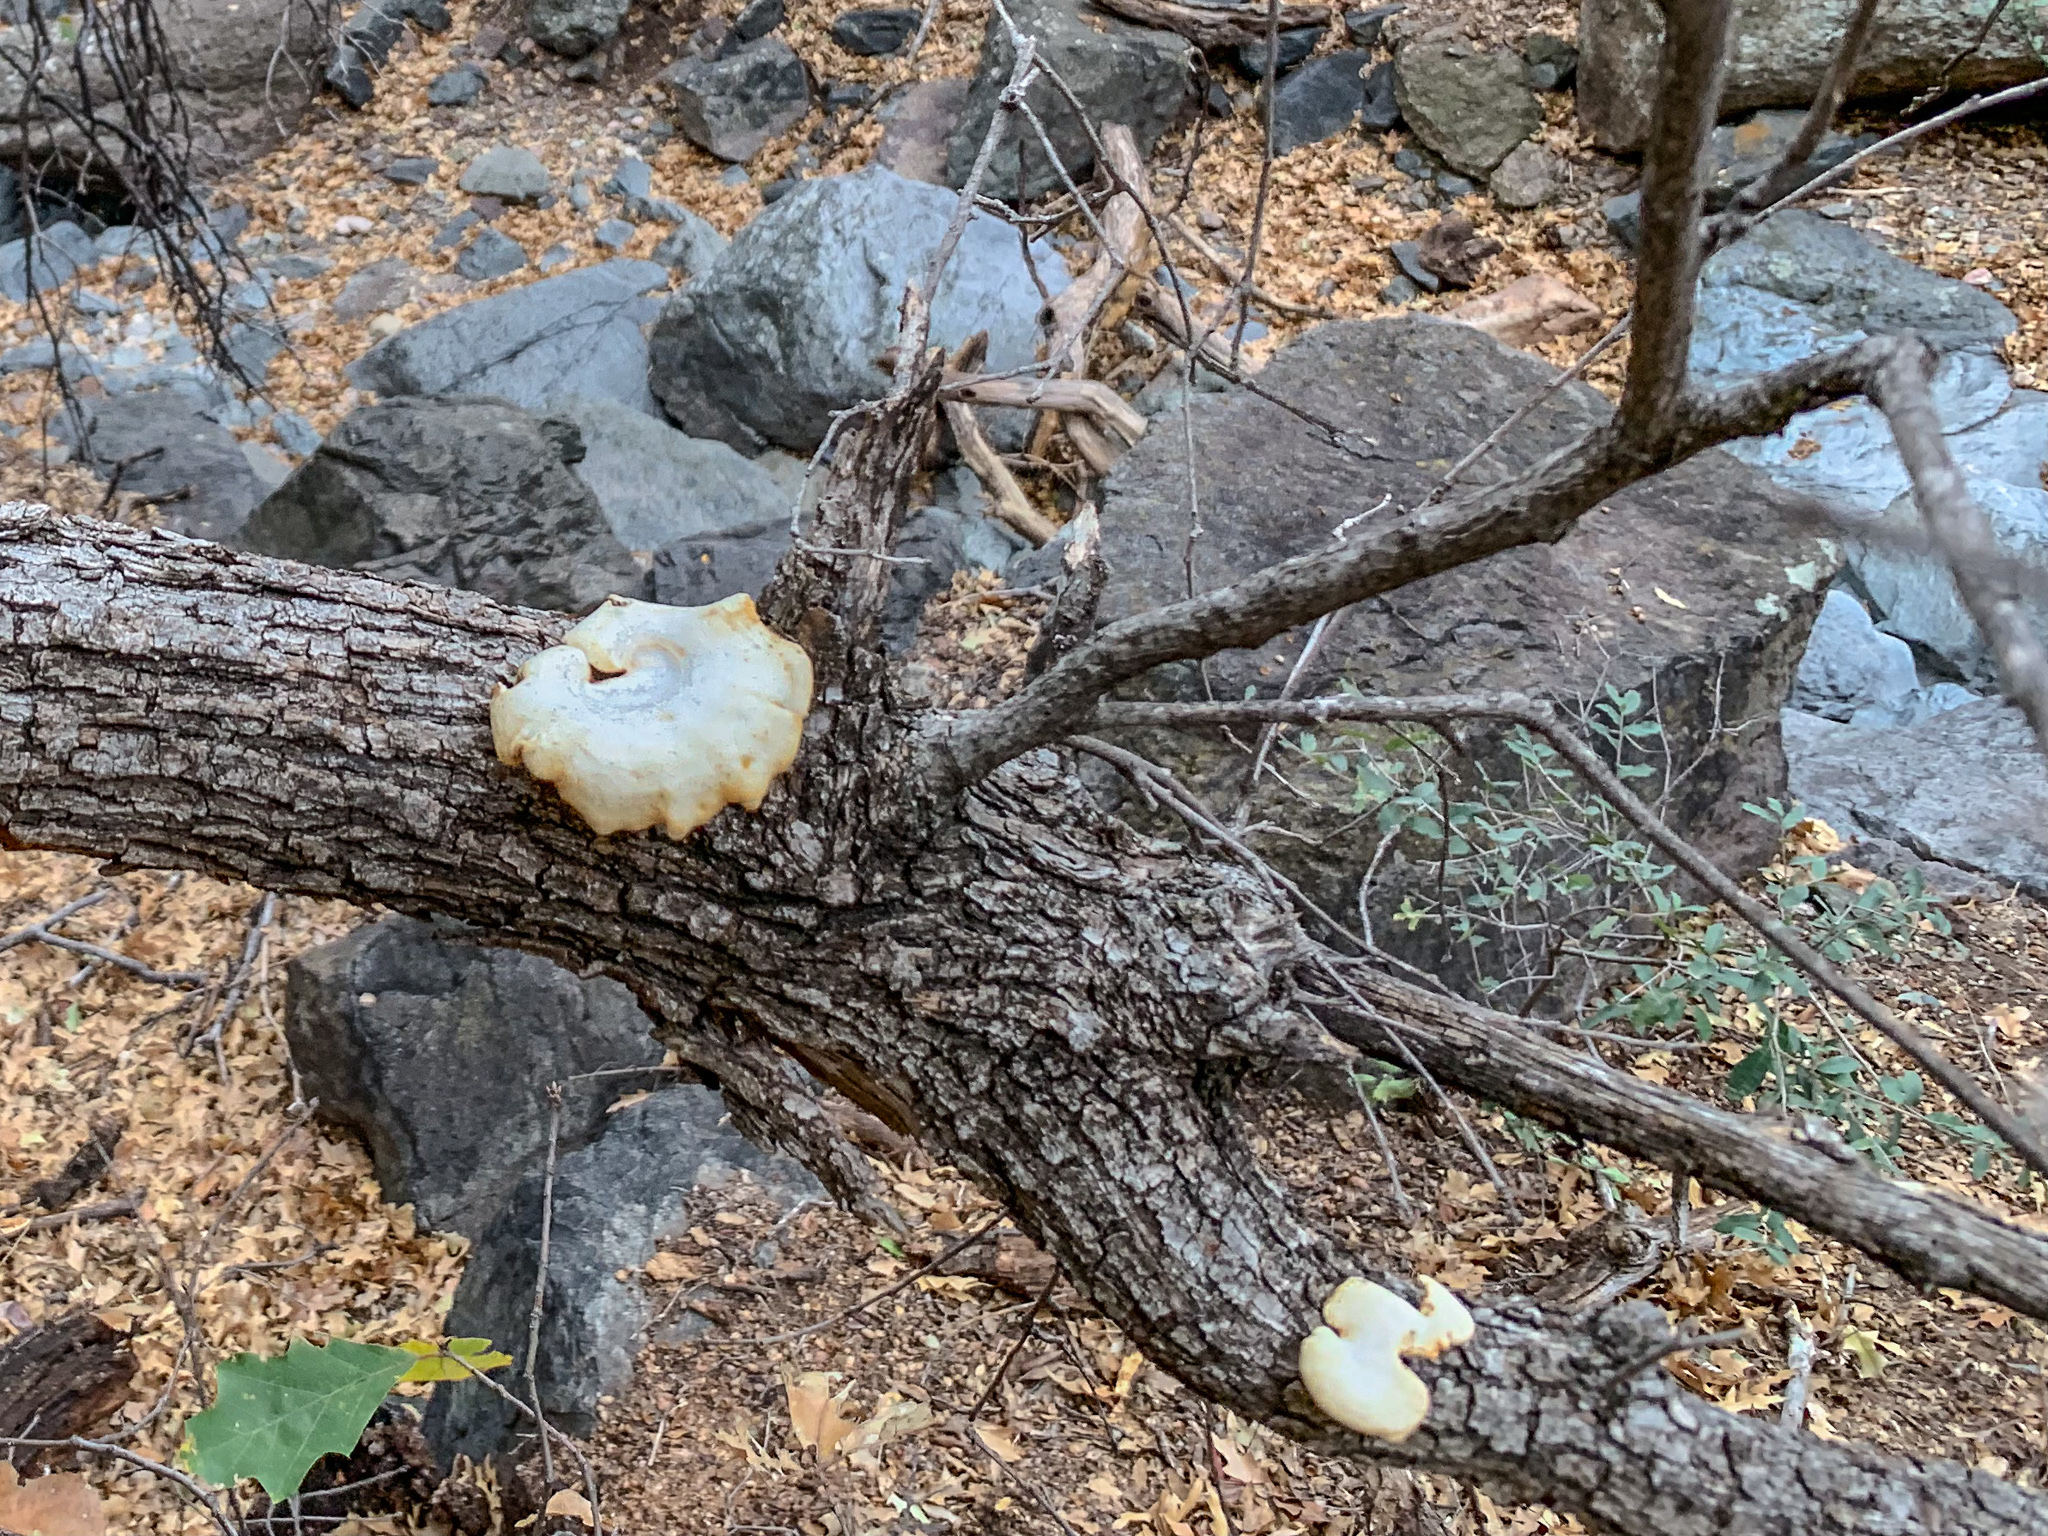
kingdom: Fungi
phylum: Basidiomycota
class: Agaricomycetes
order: Polyporales
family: Polyporaceae
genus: Neofavolus
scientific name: Neofavolus alveolaris
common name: Hexagonal-pored polypore
